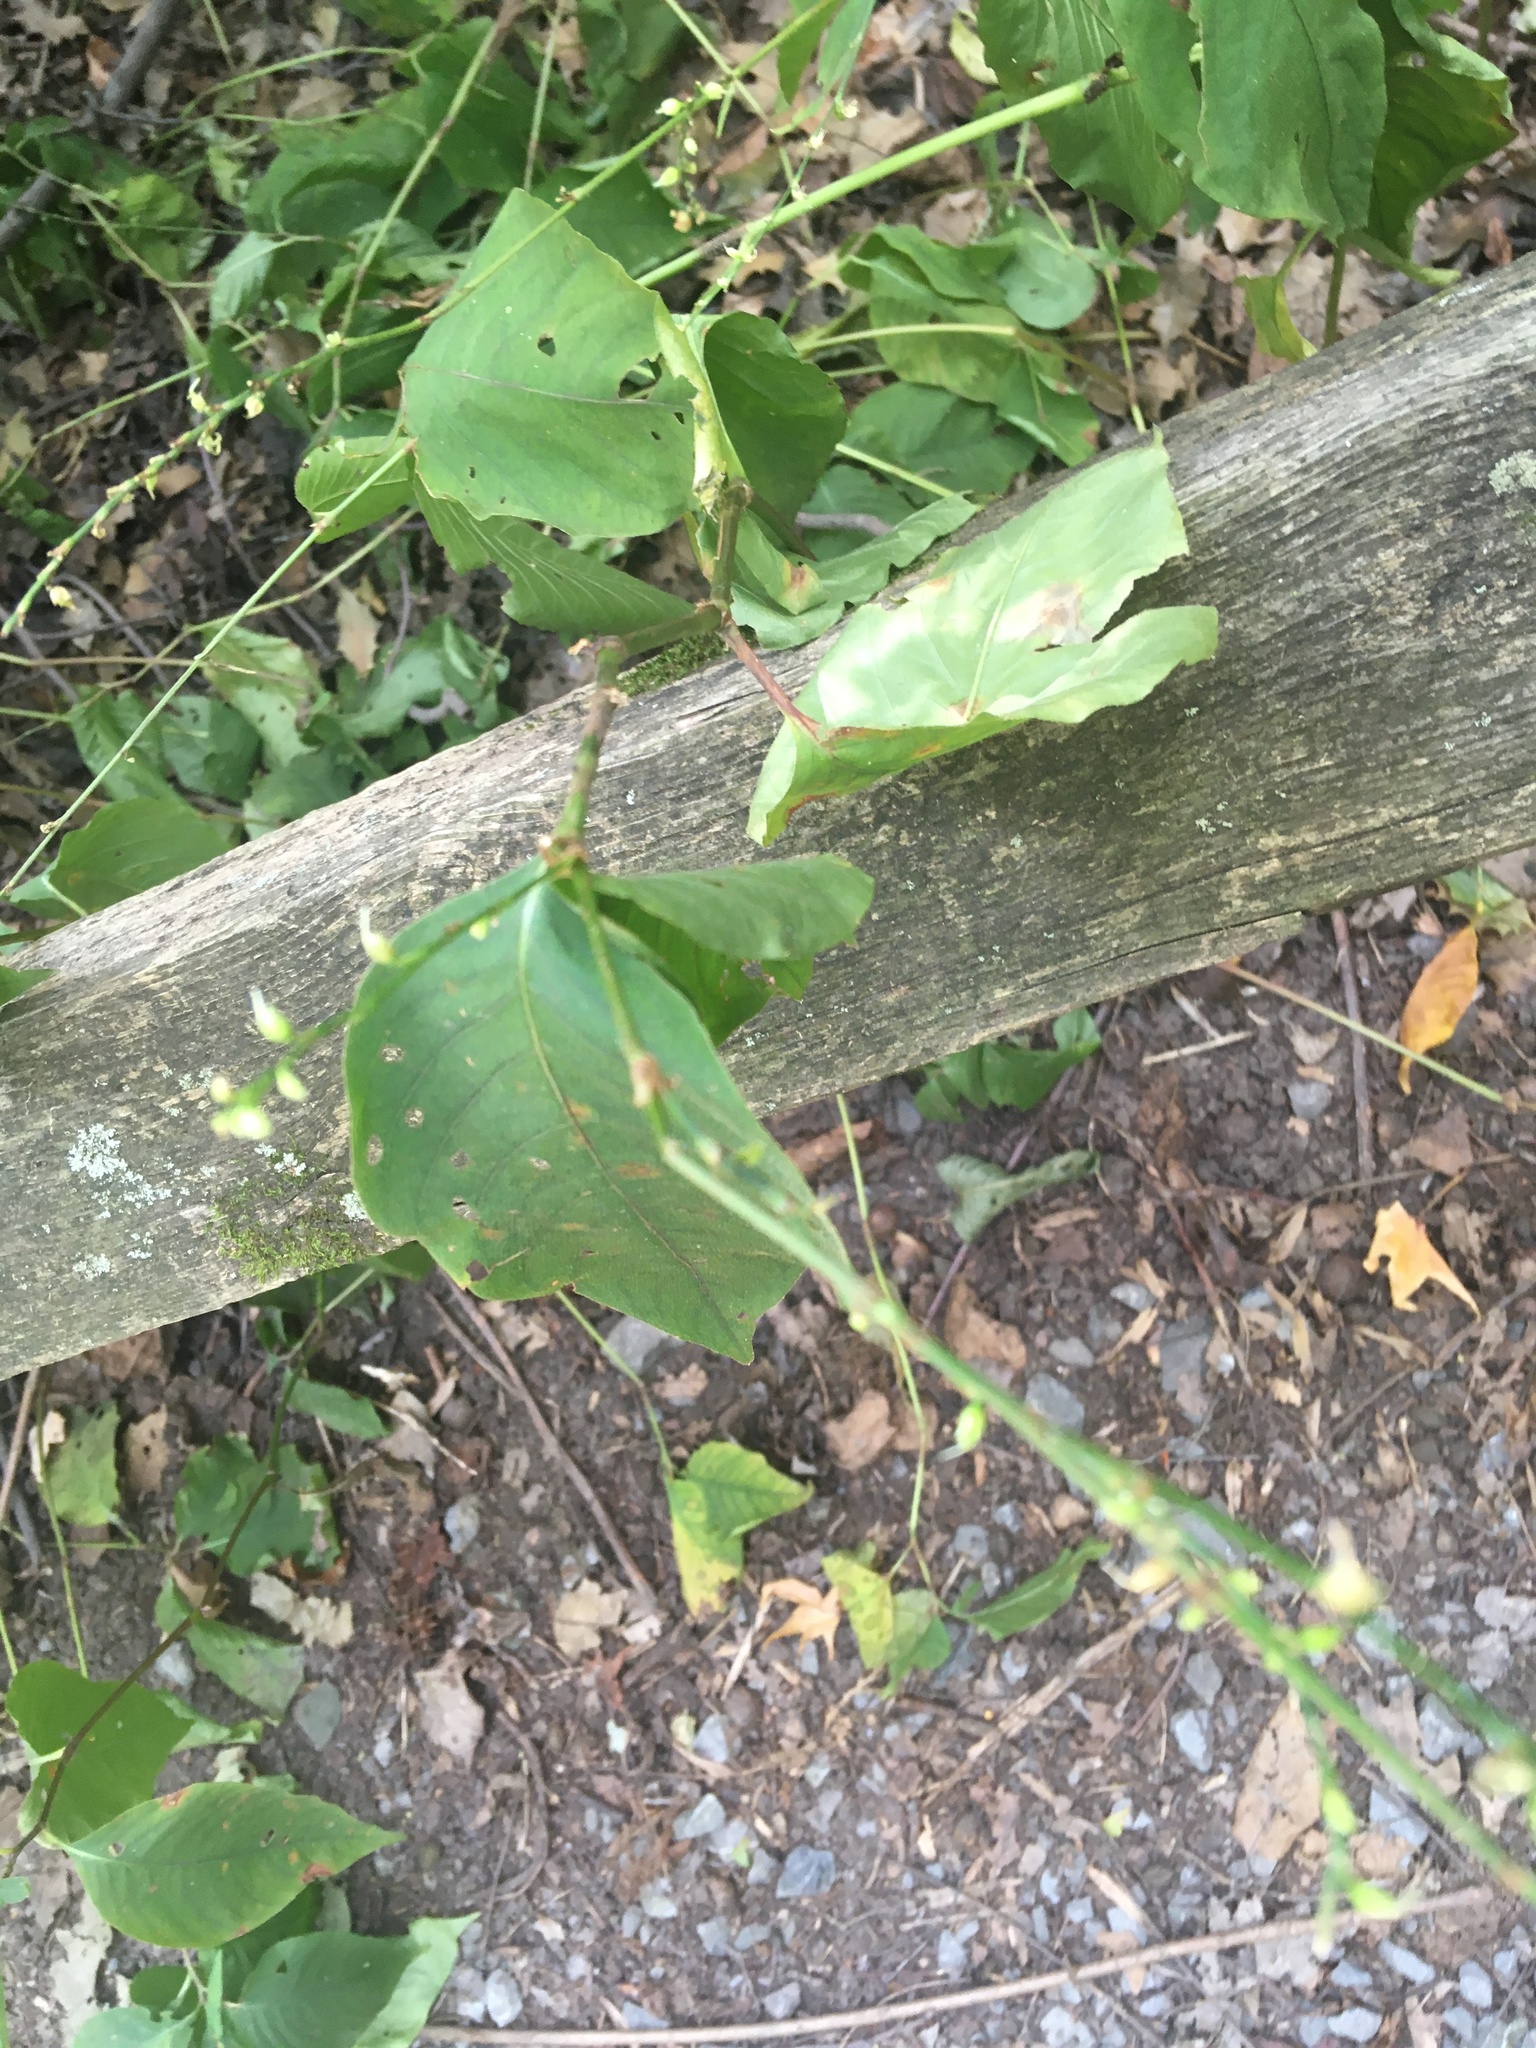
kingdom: Plantae
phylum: Tracheophyta
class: Magnoliopsida
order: Caryophyllales
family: Polygonaceae
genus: Persicaria
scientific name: Persicaria virginiana
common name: Jumpseed
